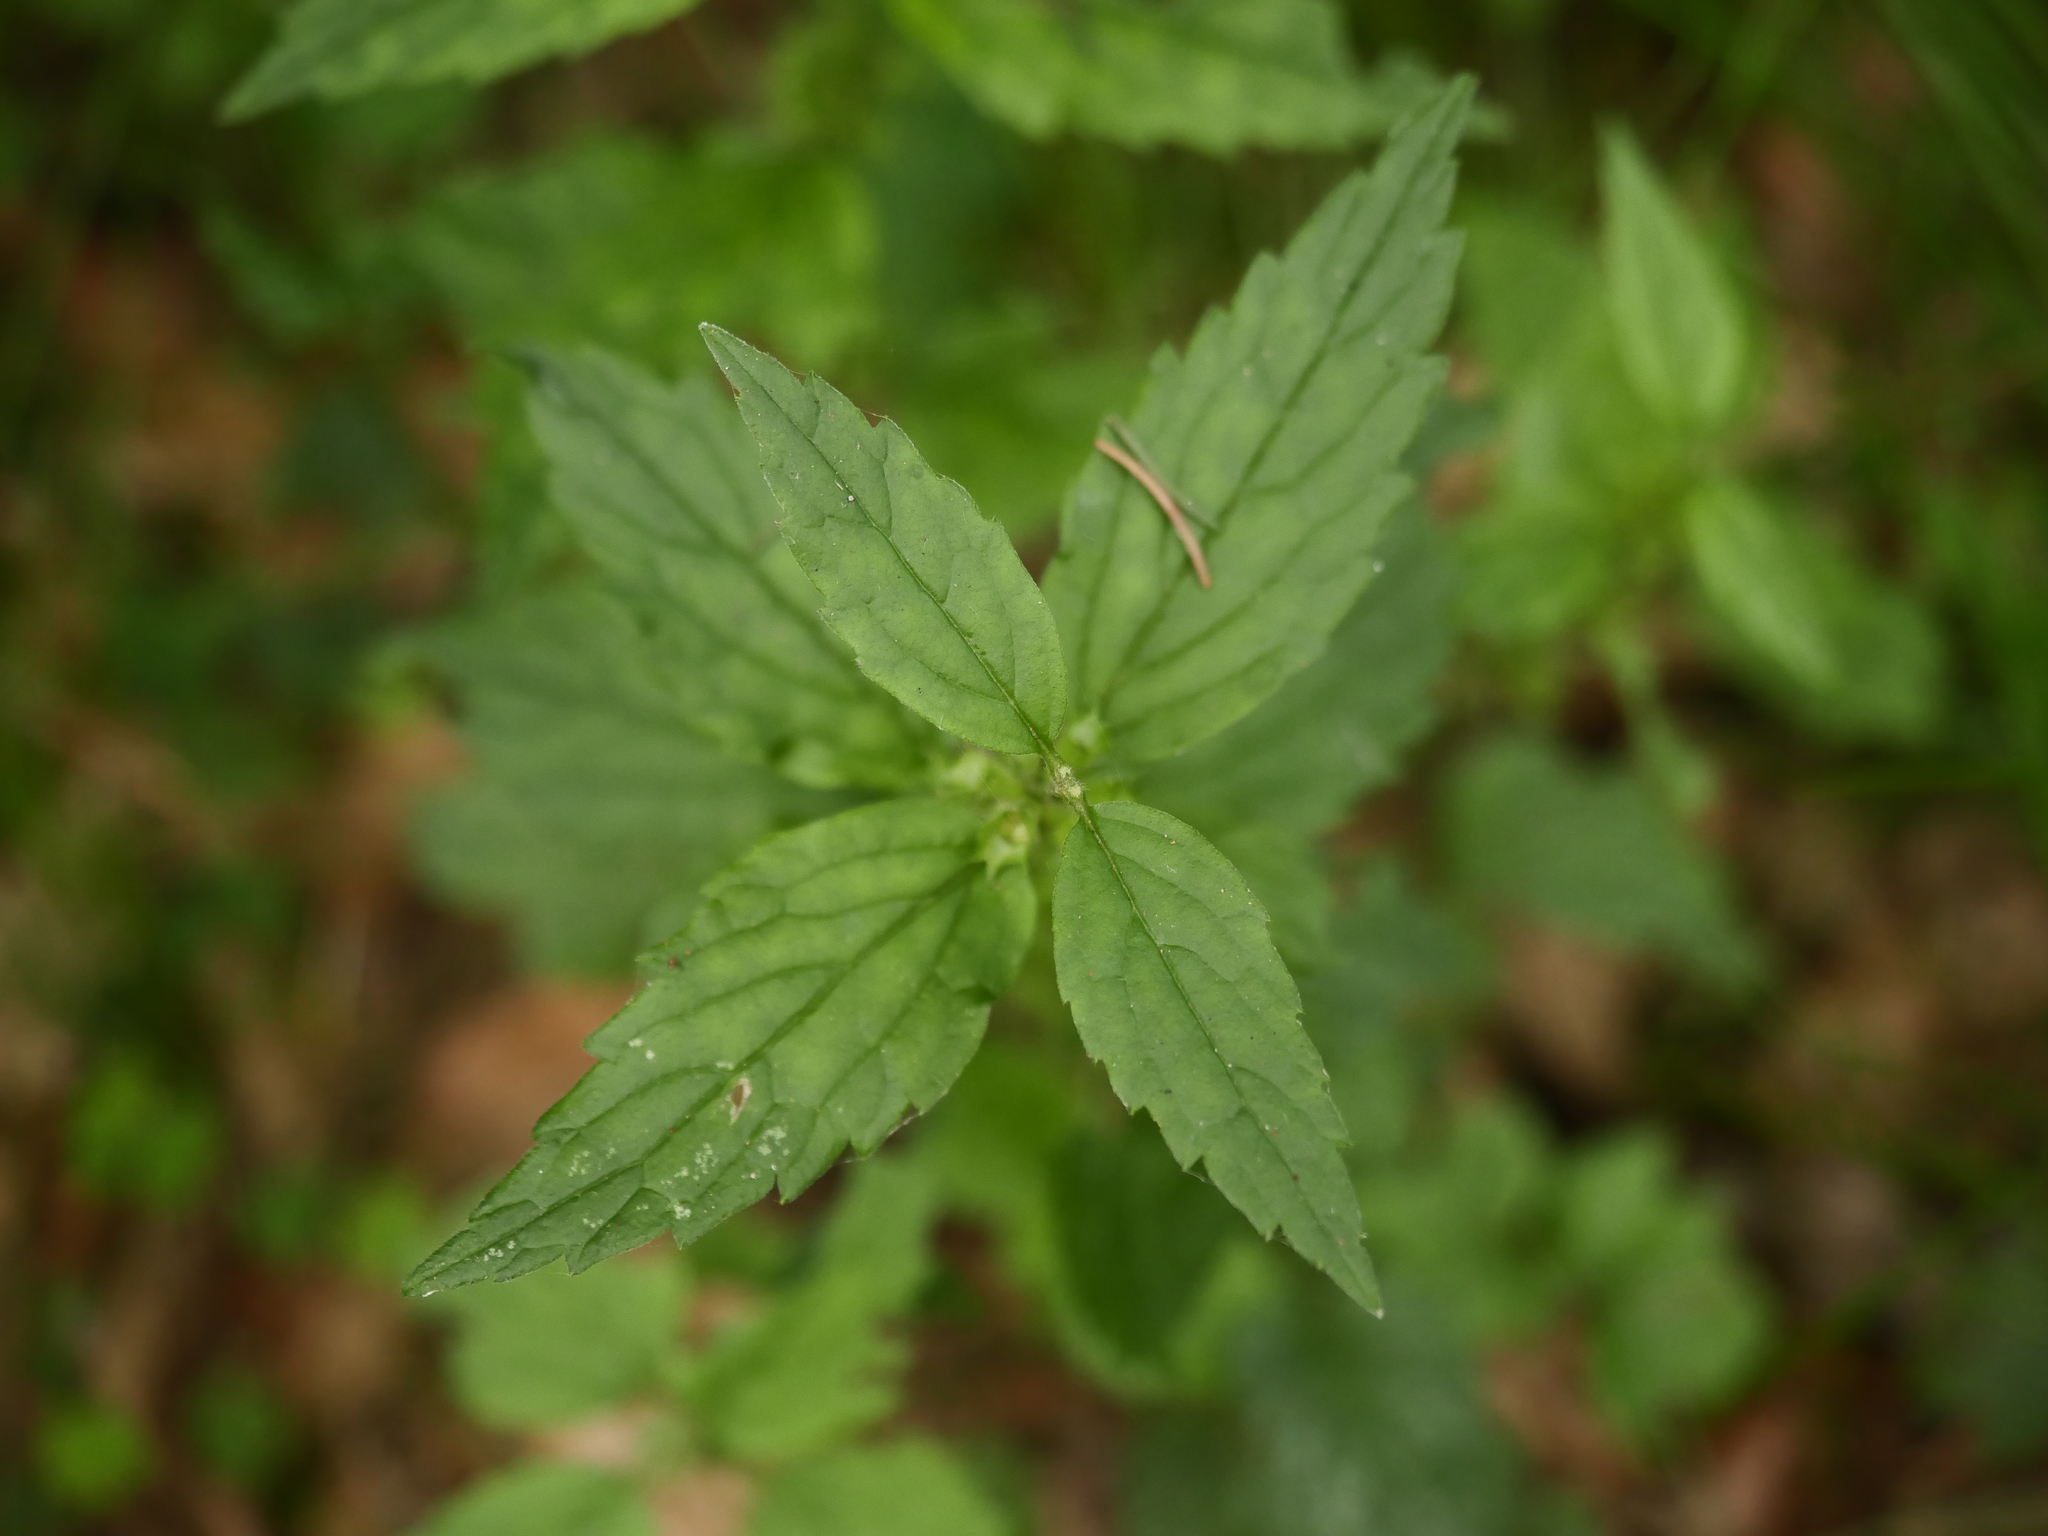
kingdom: Plantae
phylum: Tracheophyta
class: Magnoliopsida
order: Lamiales
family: Lamiaceae
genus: Lamium
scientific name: Lamium galeobdolon
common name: Yellow archangel
